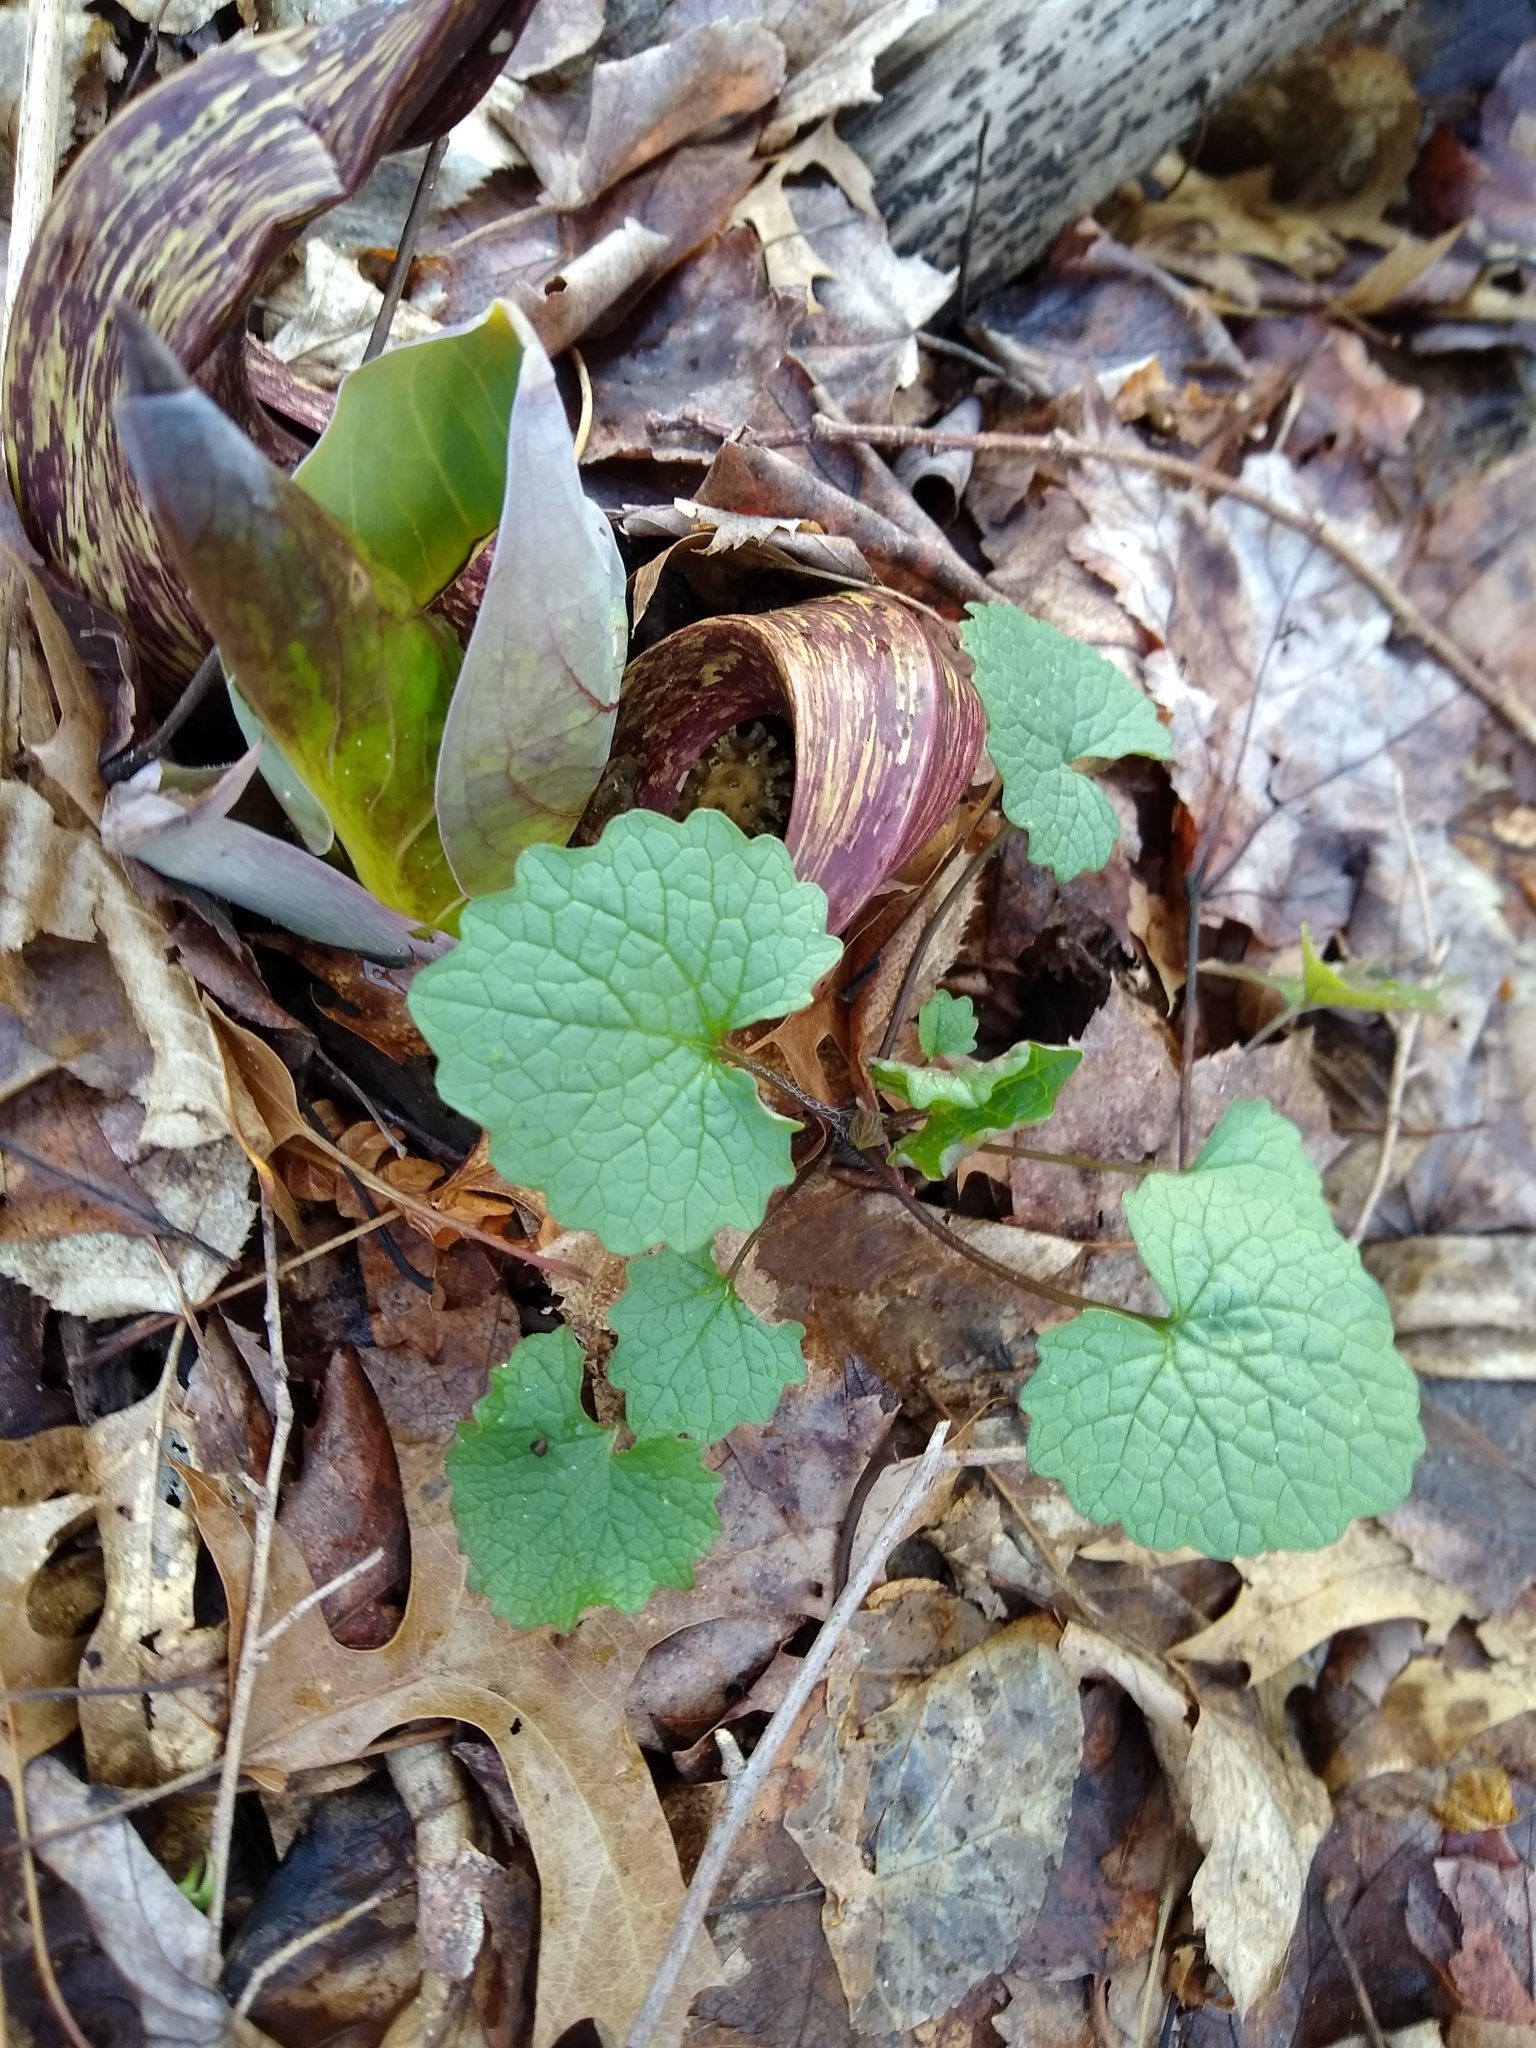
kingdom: Plantae
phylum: Tracheophyta
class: Liliopsida
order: Alismatales
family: Araceae
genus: Symplocarpus
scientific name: Symplocarpus foetidus
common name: Eastern skunk cabbage
